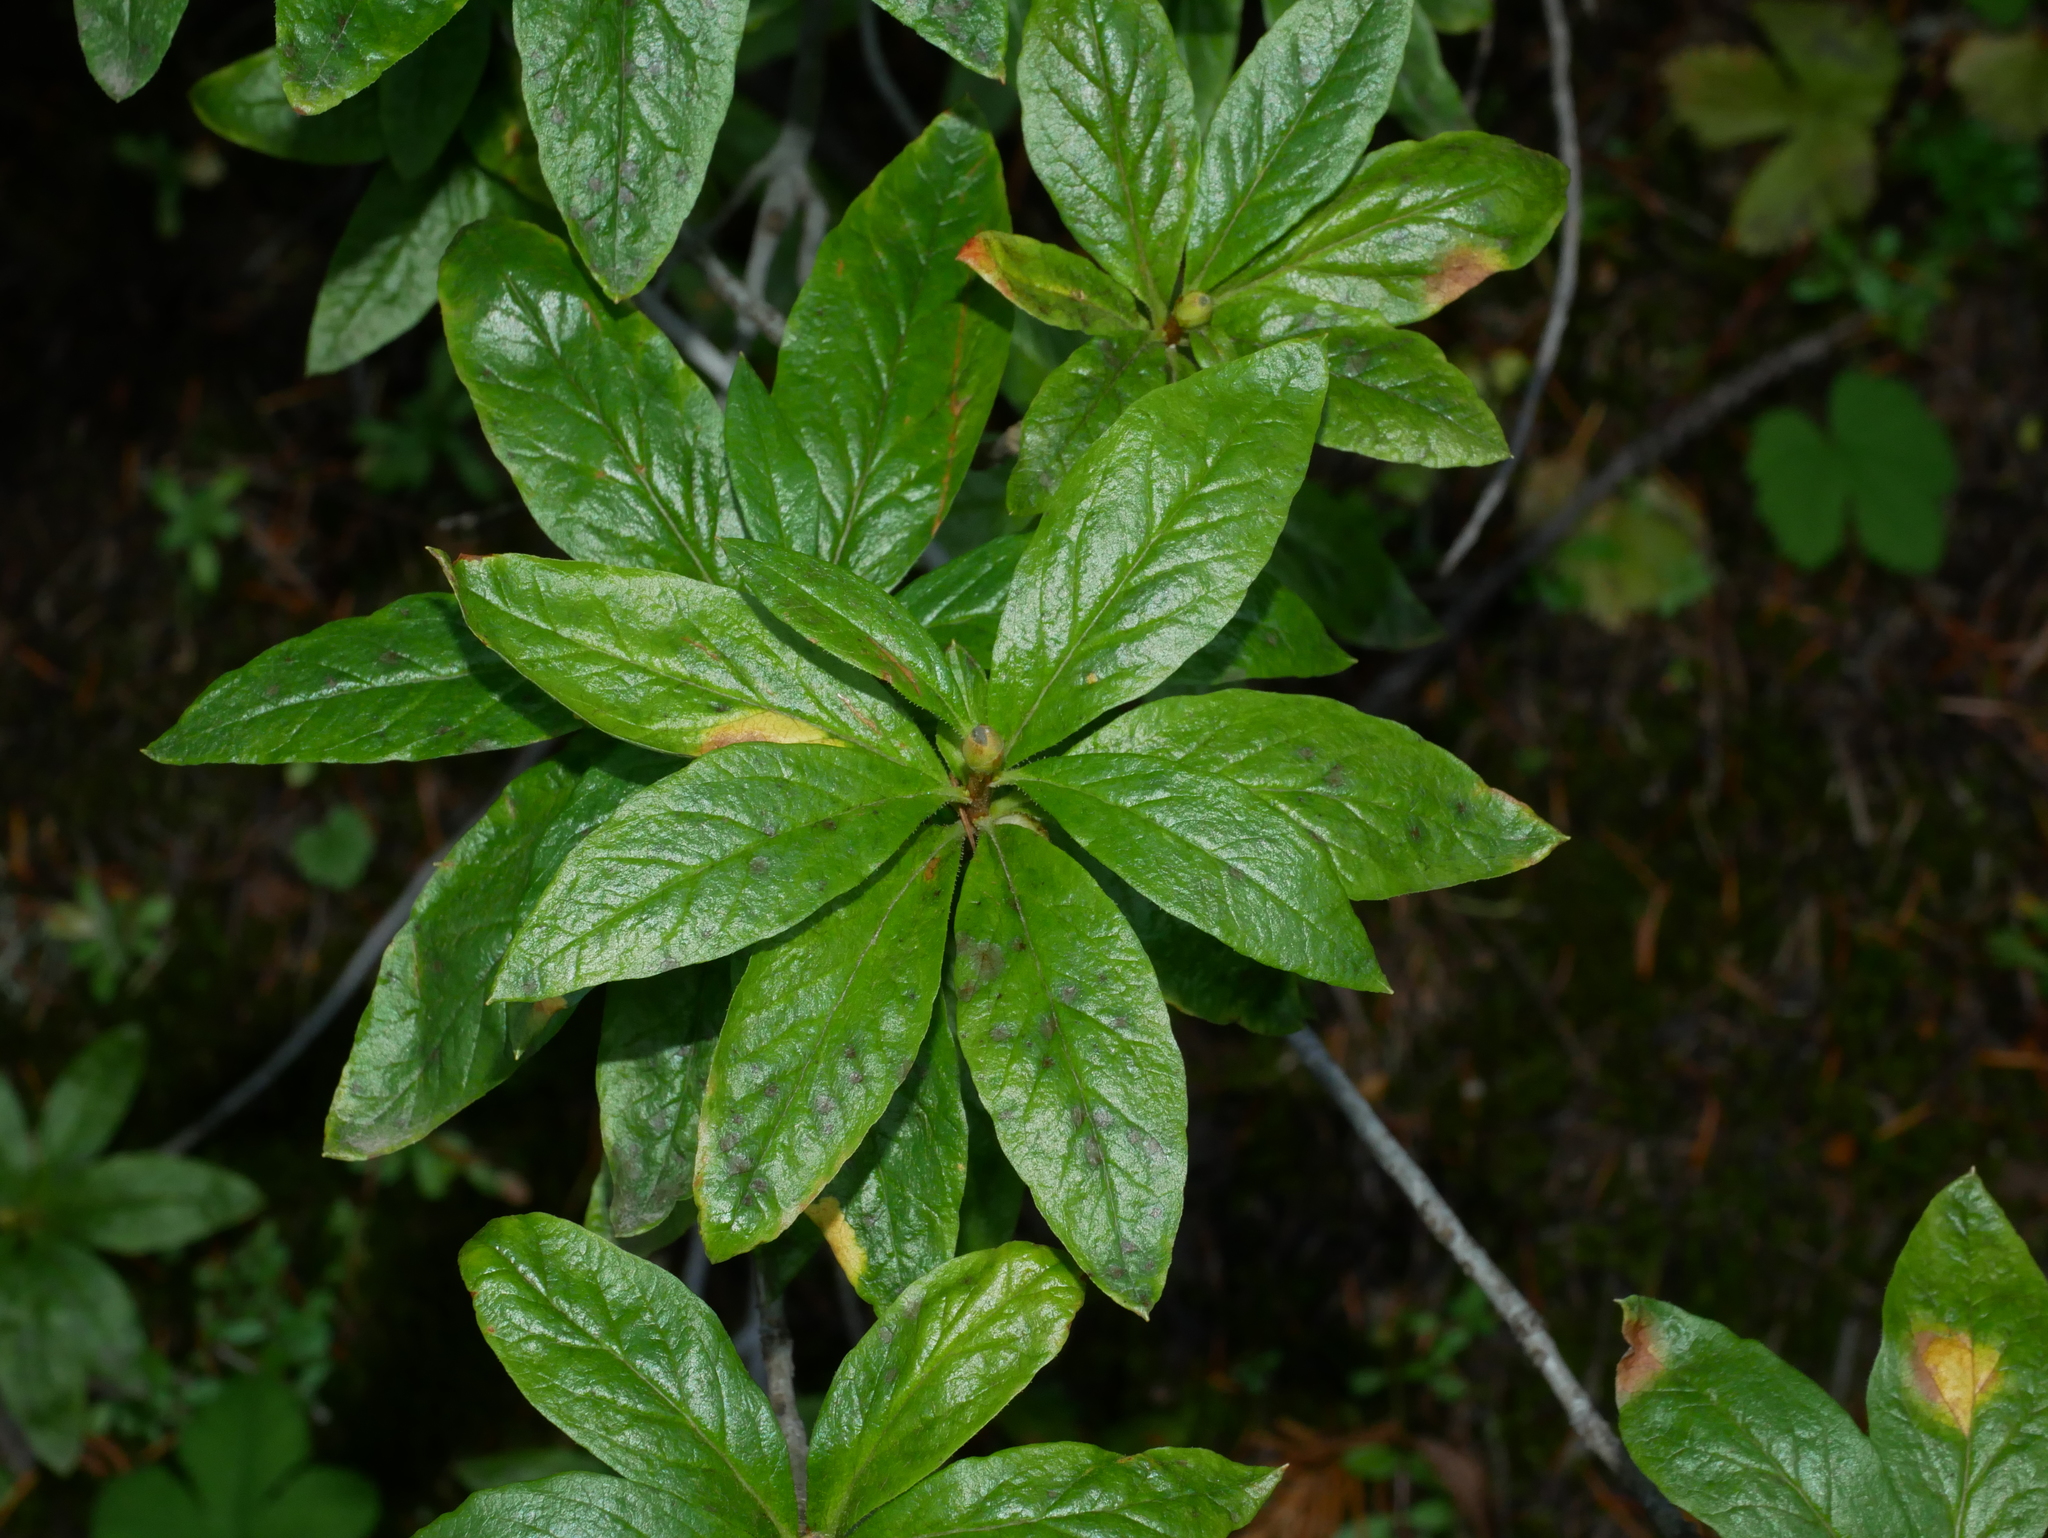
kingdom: Plantae
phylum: Tracheophyta
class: Magnoliopsida
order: Ericales
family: Ericaceae
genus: Rhododendron
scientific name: Rhododendron albiflorum
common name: White rhododendron
